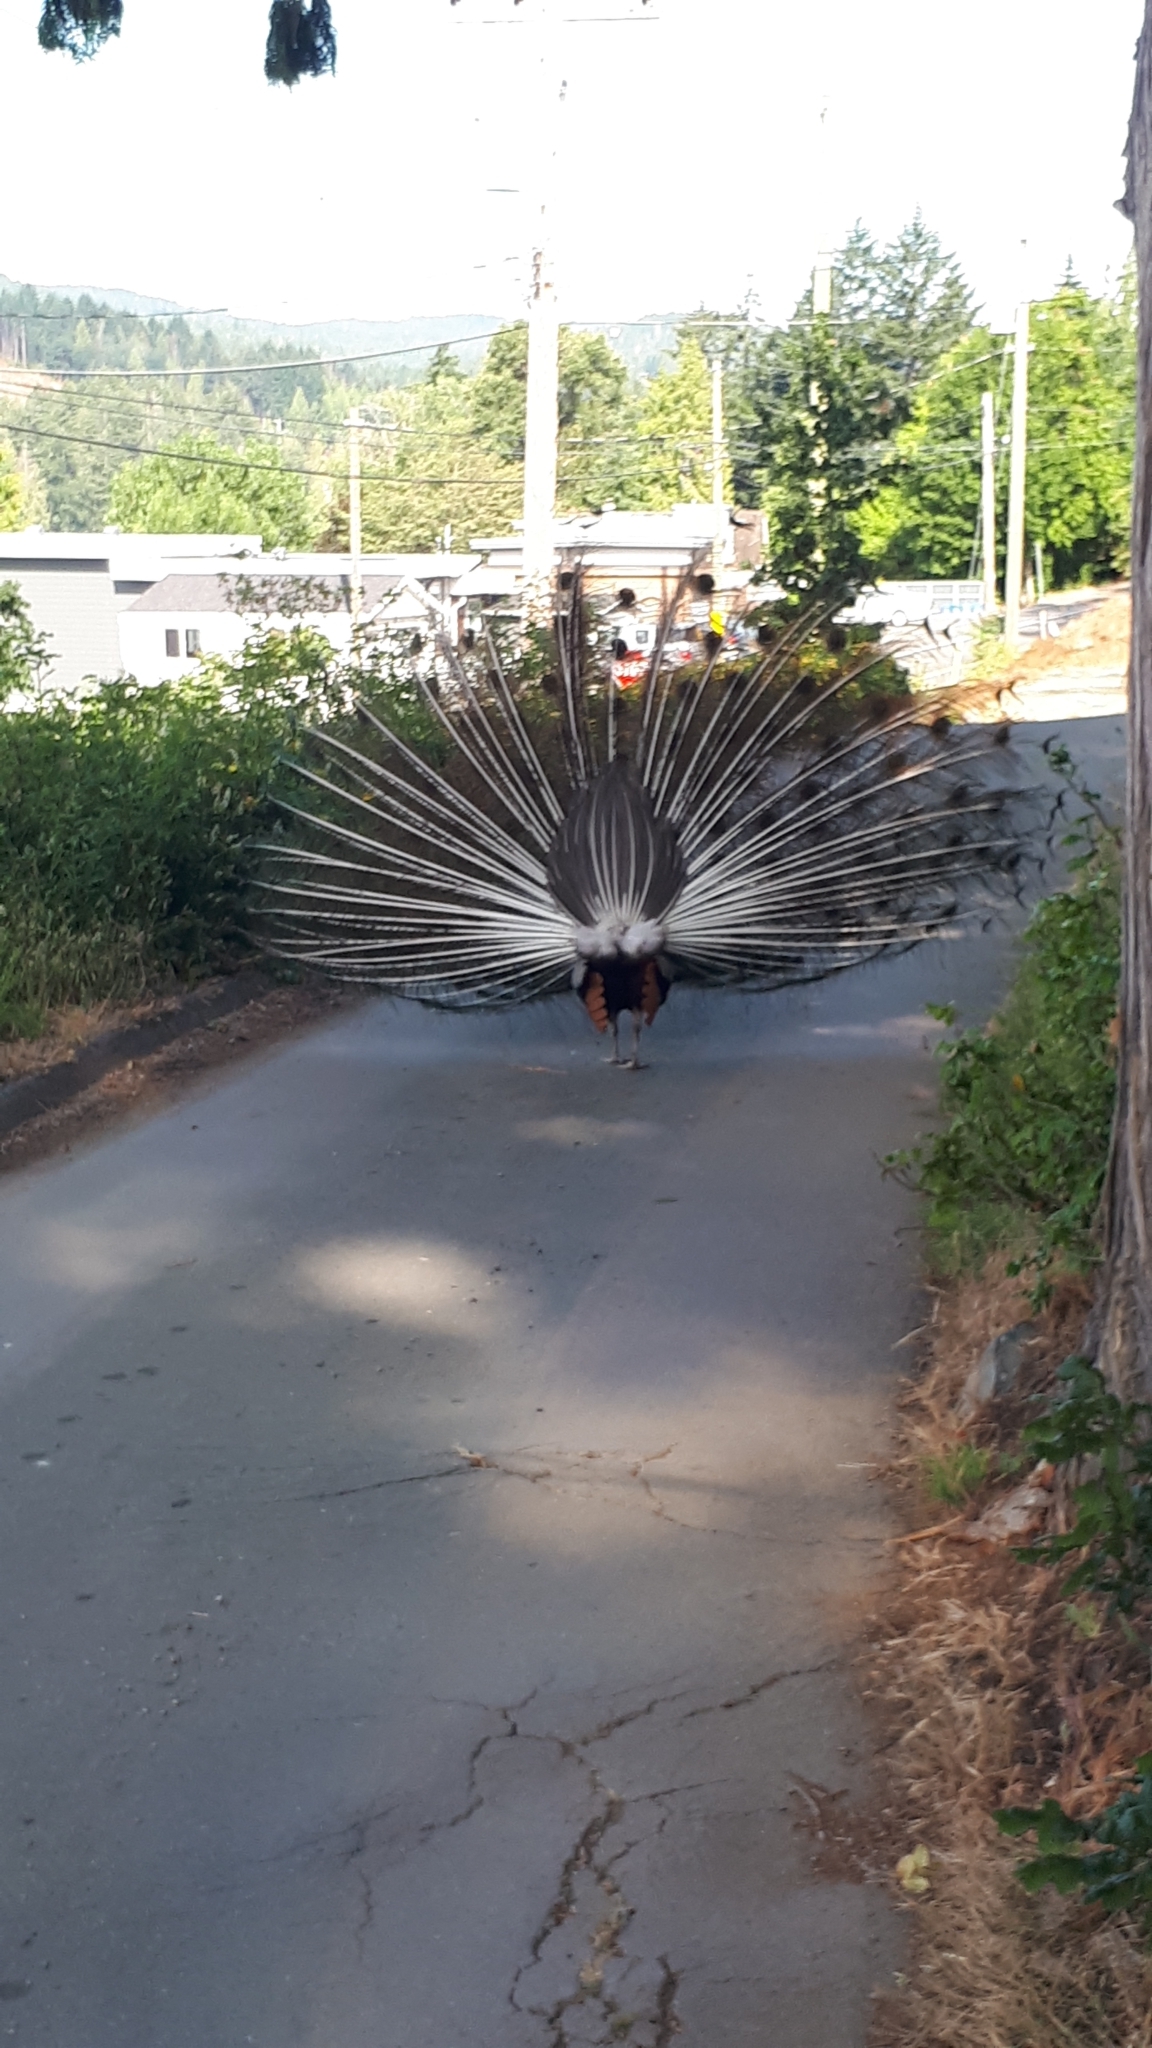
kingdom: Animalia
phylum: Chordata
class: Aves
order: Galliformes
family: Phasianidae
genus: Pavo
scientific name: Pavo cristatus
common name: Indian peafowl
